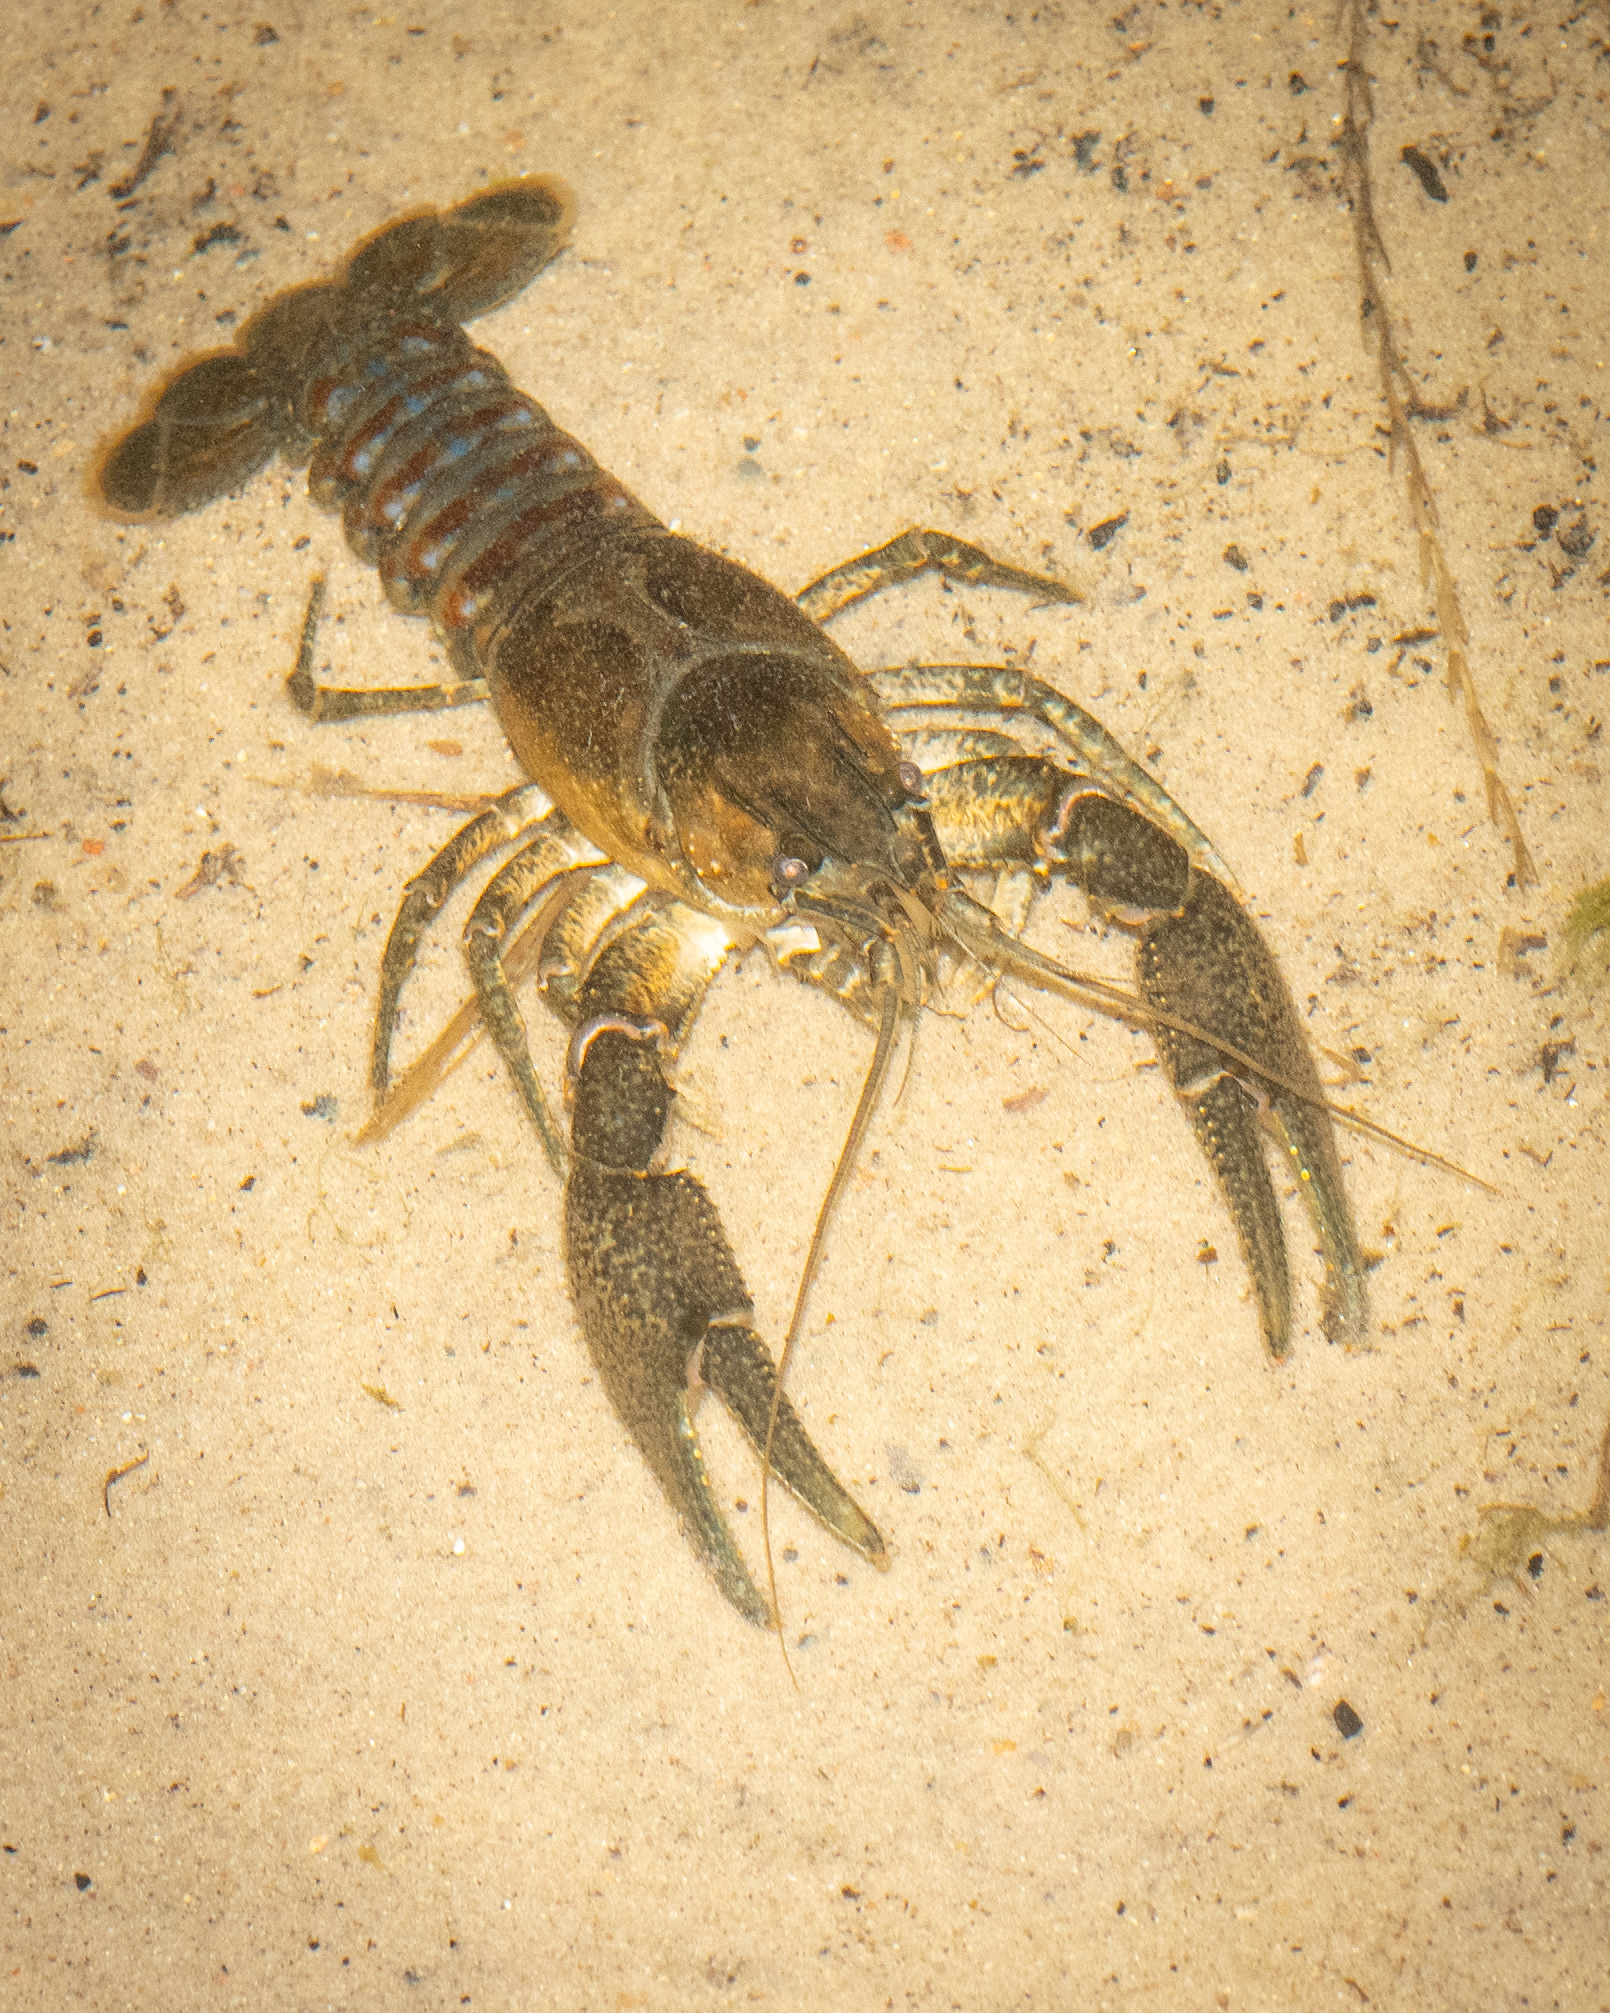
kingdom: Animalia
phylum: Arthropoda
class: Malacostraca
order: Decapoda
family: Cambaridae
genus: Faxonius
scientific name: Faxonius limosus
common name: American crayfish
